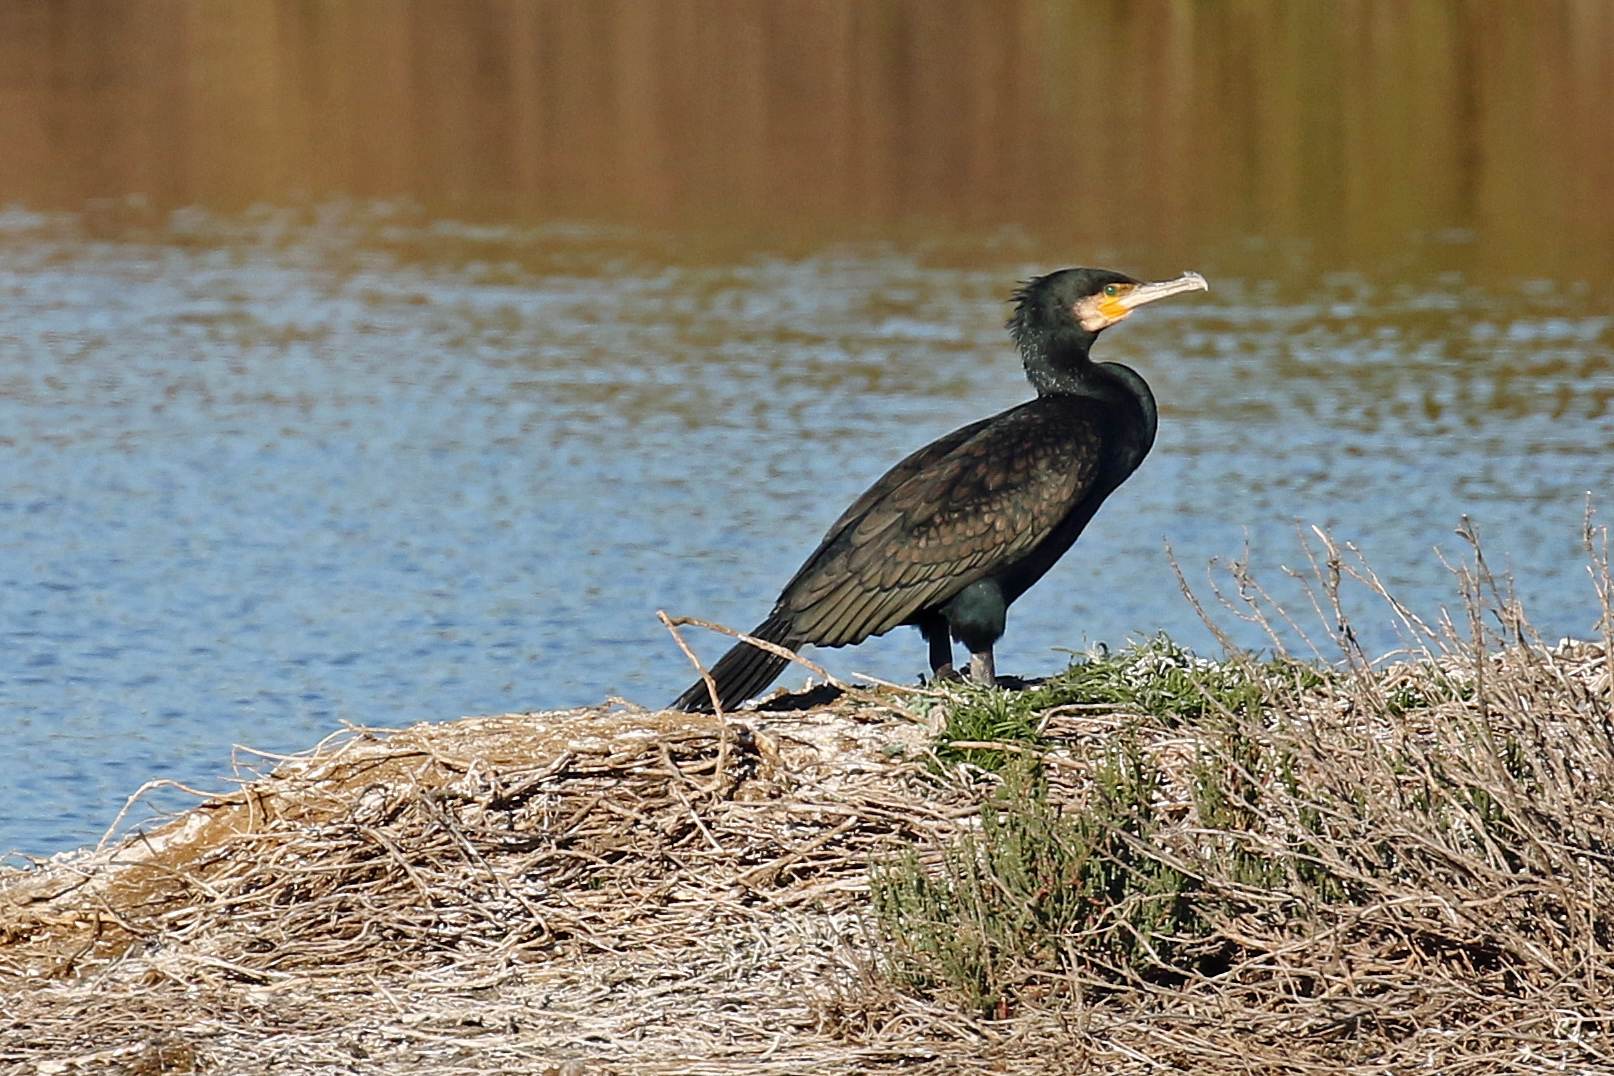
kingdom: Animalia
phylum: Chordata
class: Aves
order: Suliformes
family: Phalacrocoracidae
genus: Phalacrocorax
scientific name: Phalacrocorax carbo
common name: Great cormorant
